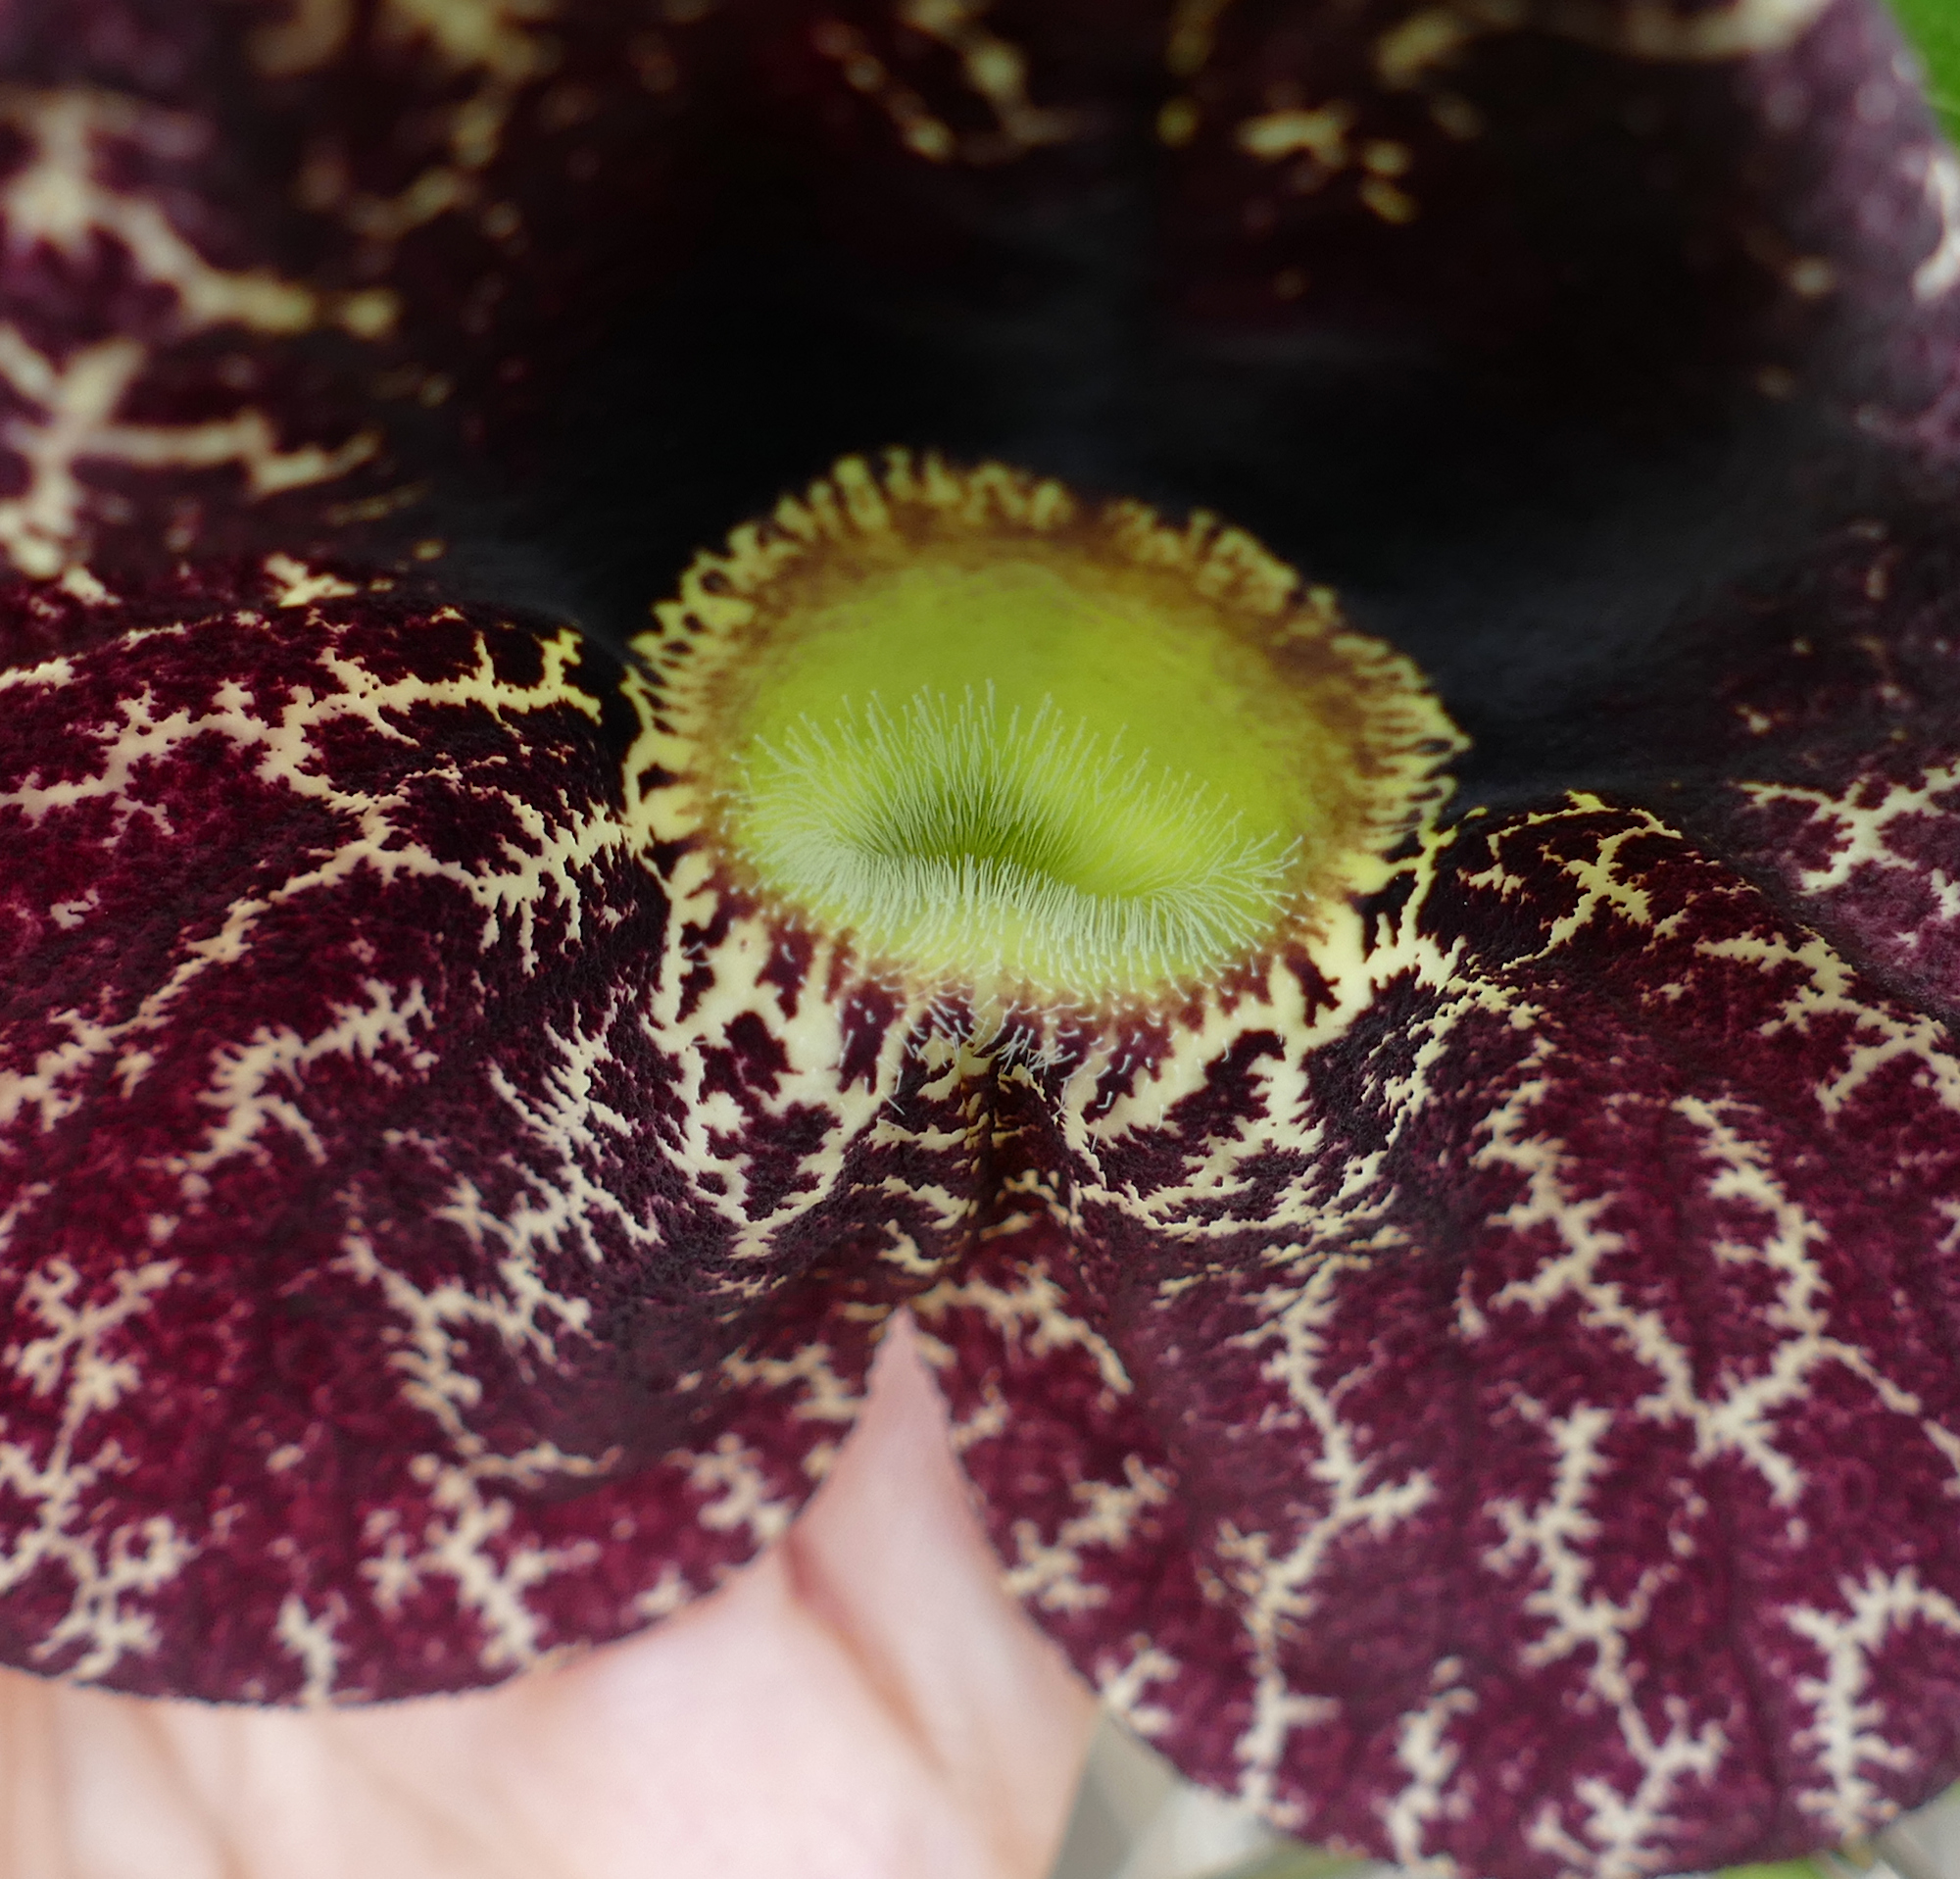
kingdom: Plantae
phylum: Tracheophyta
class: Magnoliopsida
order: Piperales
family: Aristolochiaceae
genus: Aristolochia
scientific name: Aristolochia littoralis
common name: Duck
